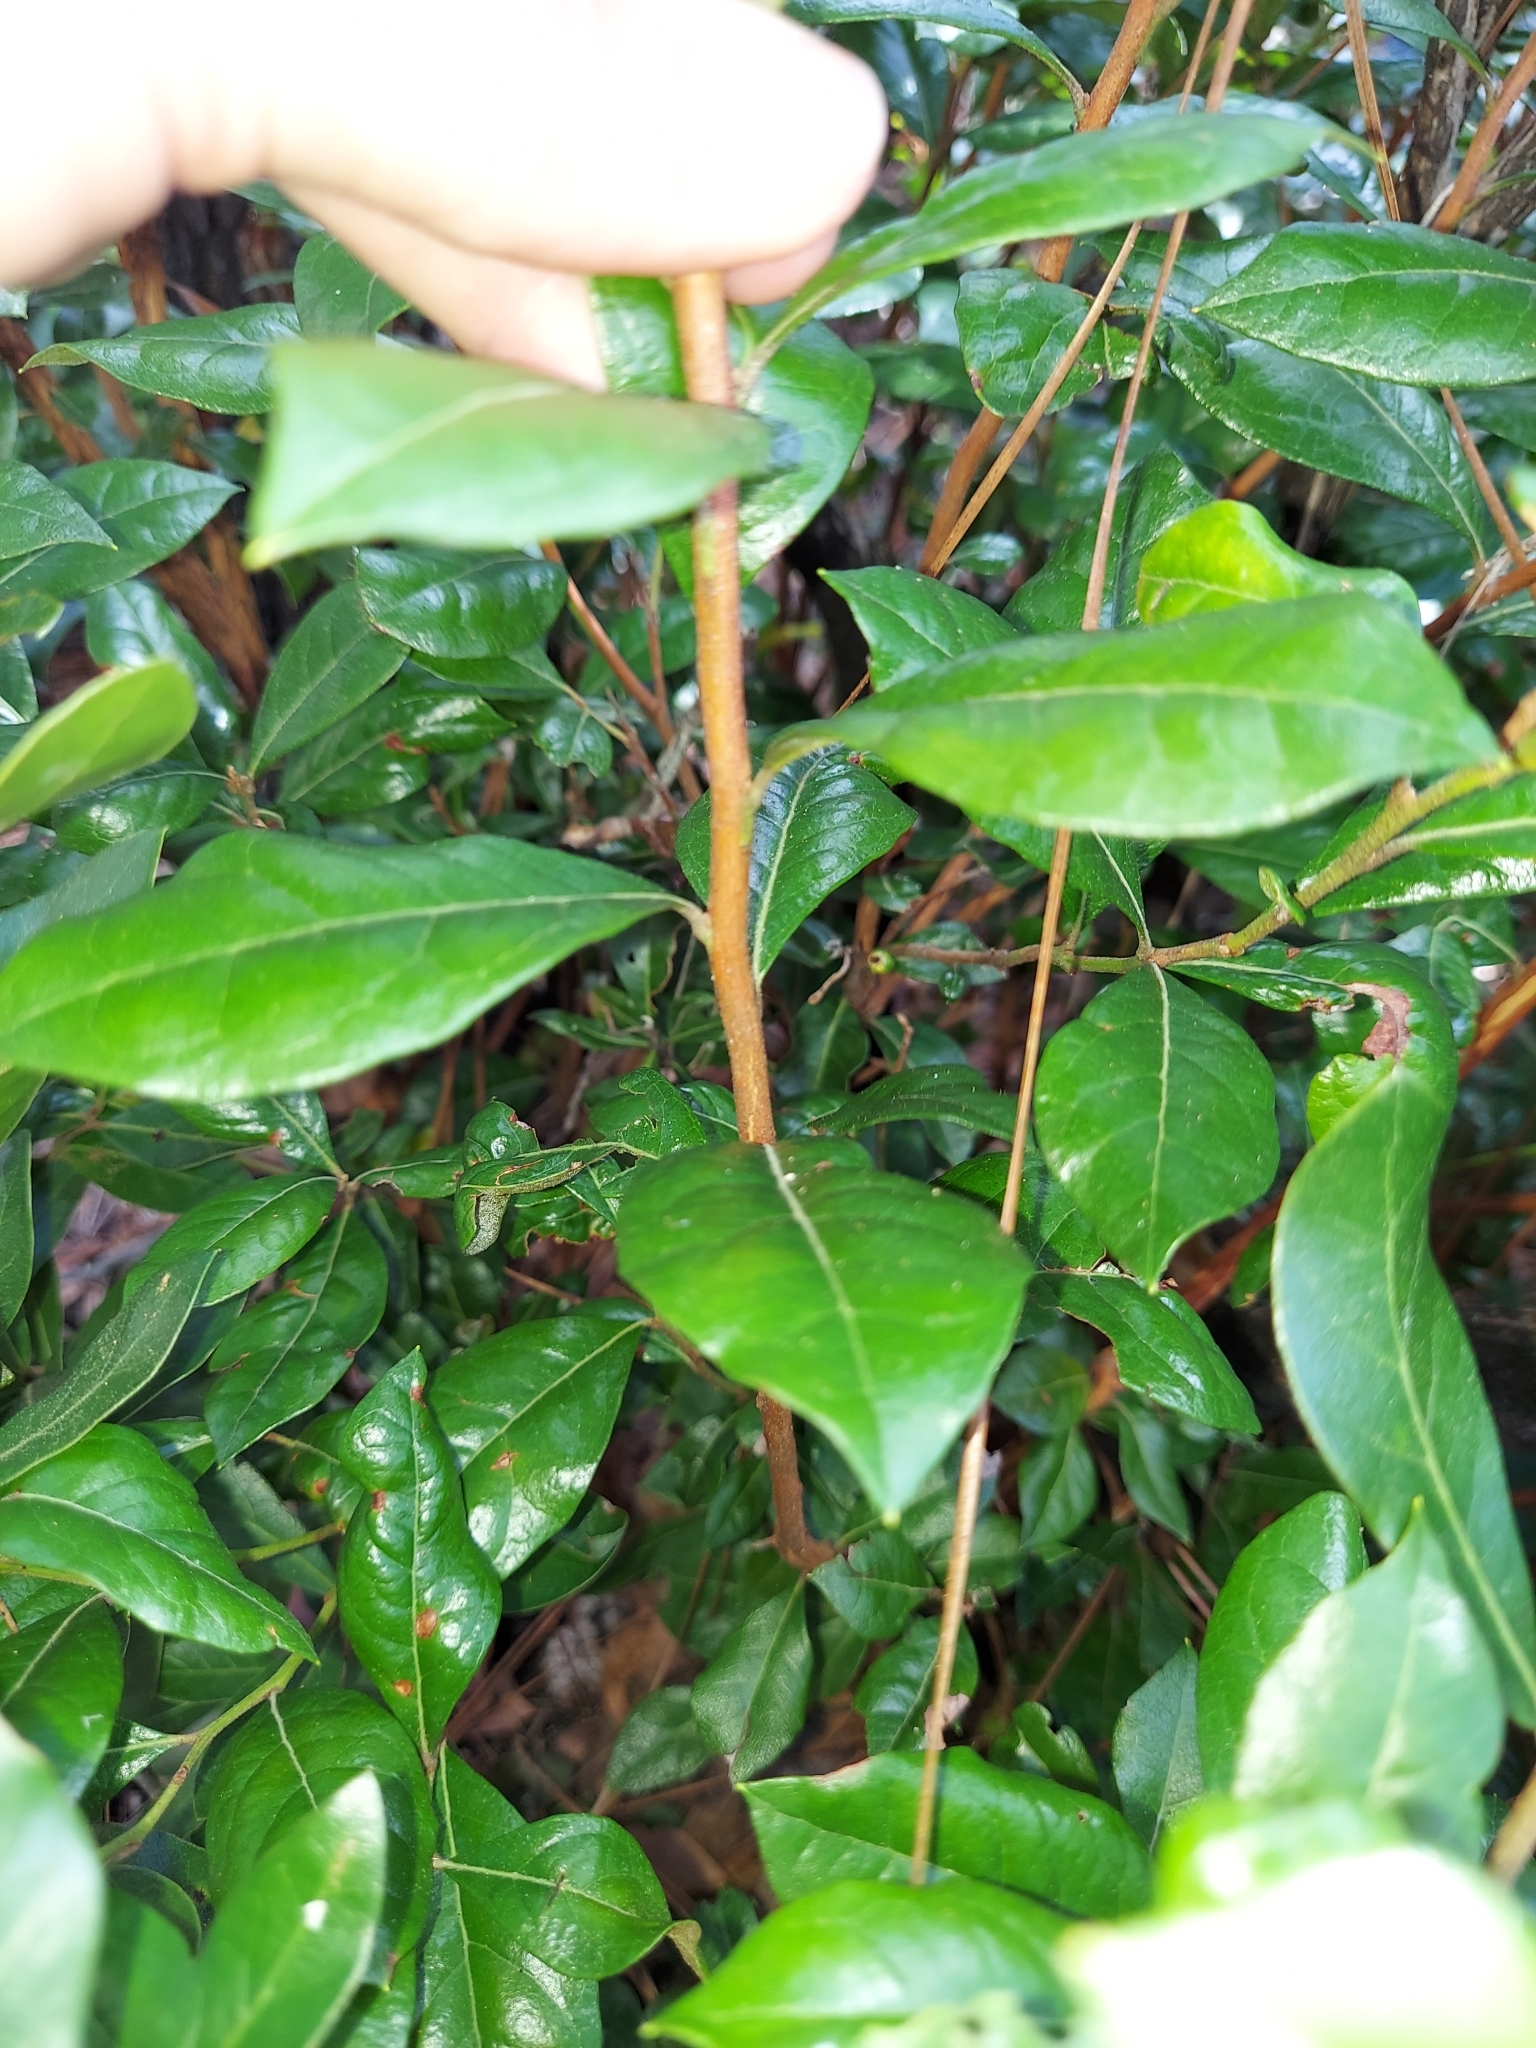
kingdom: Plantae
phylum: Tracheophyta
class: Magnoliopsida
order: Ericales
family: Ericaceae
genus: Lyonia
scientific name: Lyonia ferruginea
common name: Rusty lyonia
